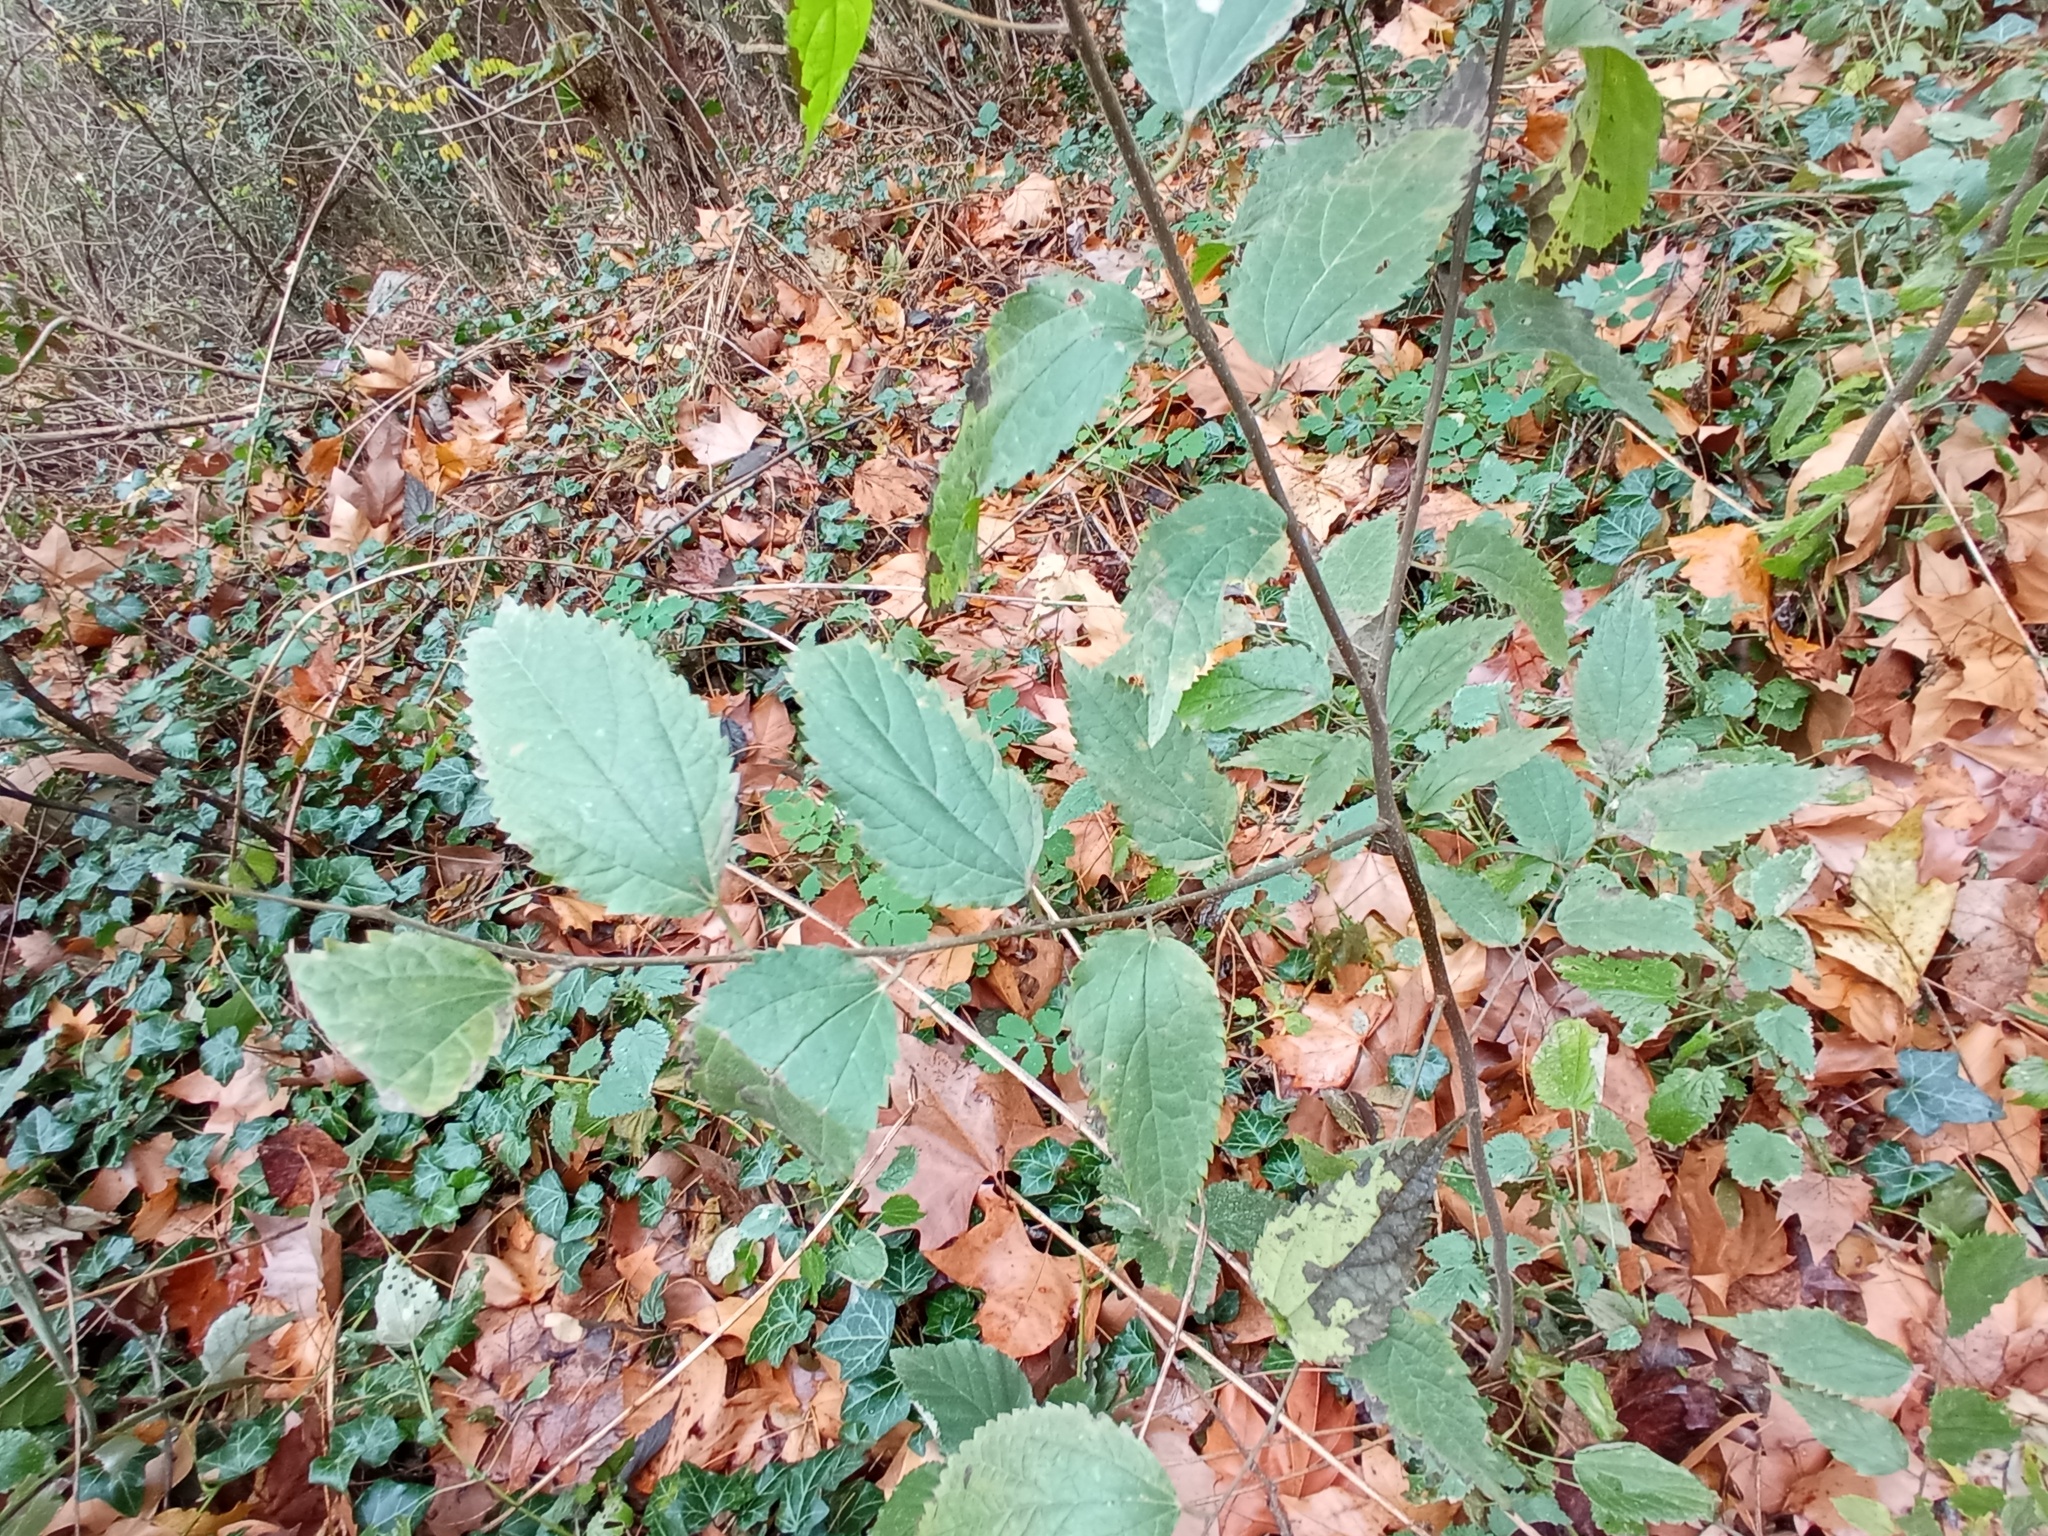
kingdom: Plantae
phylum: Tracheophyta
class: Magnoliopsida
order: Rosales
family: Cannabaceae
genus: Celtis
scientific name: Celtis australis
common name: European hackberry
